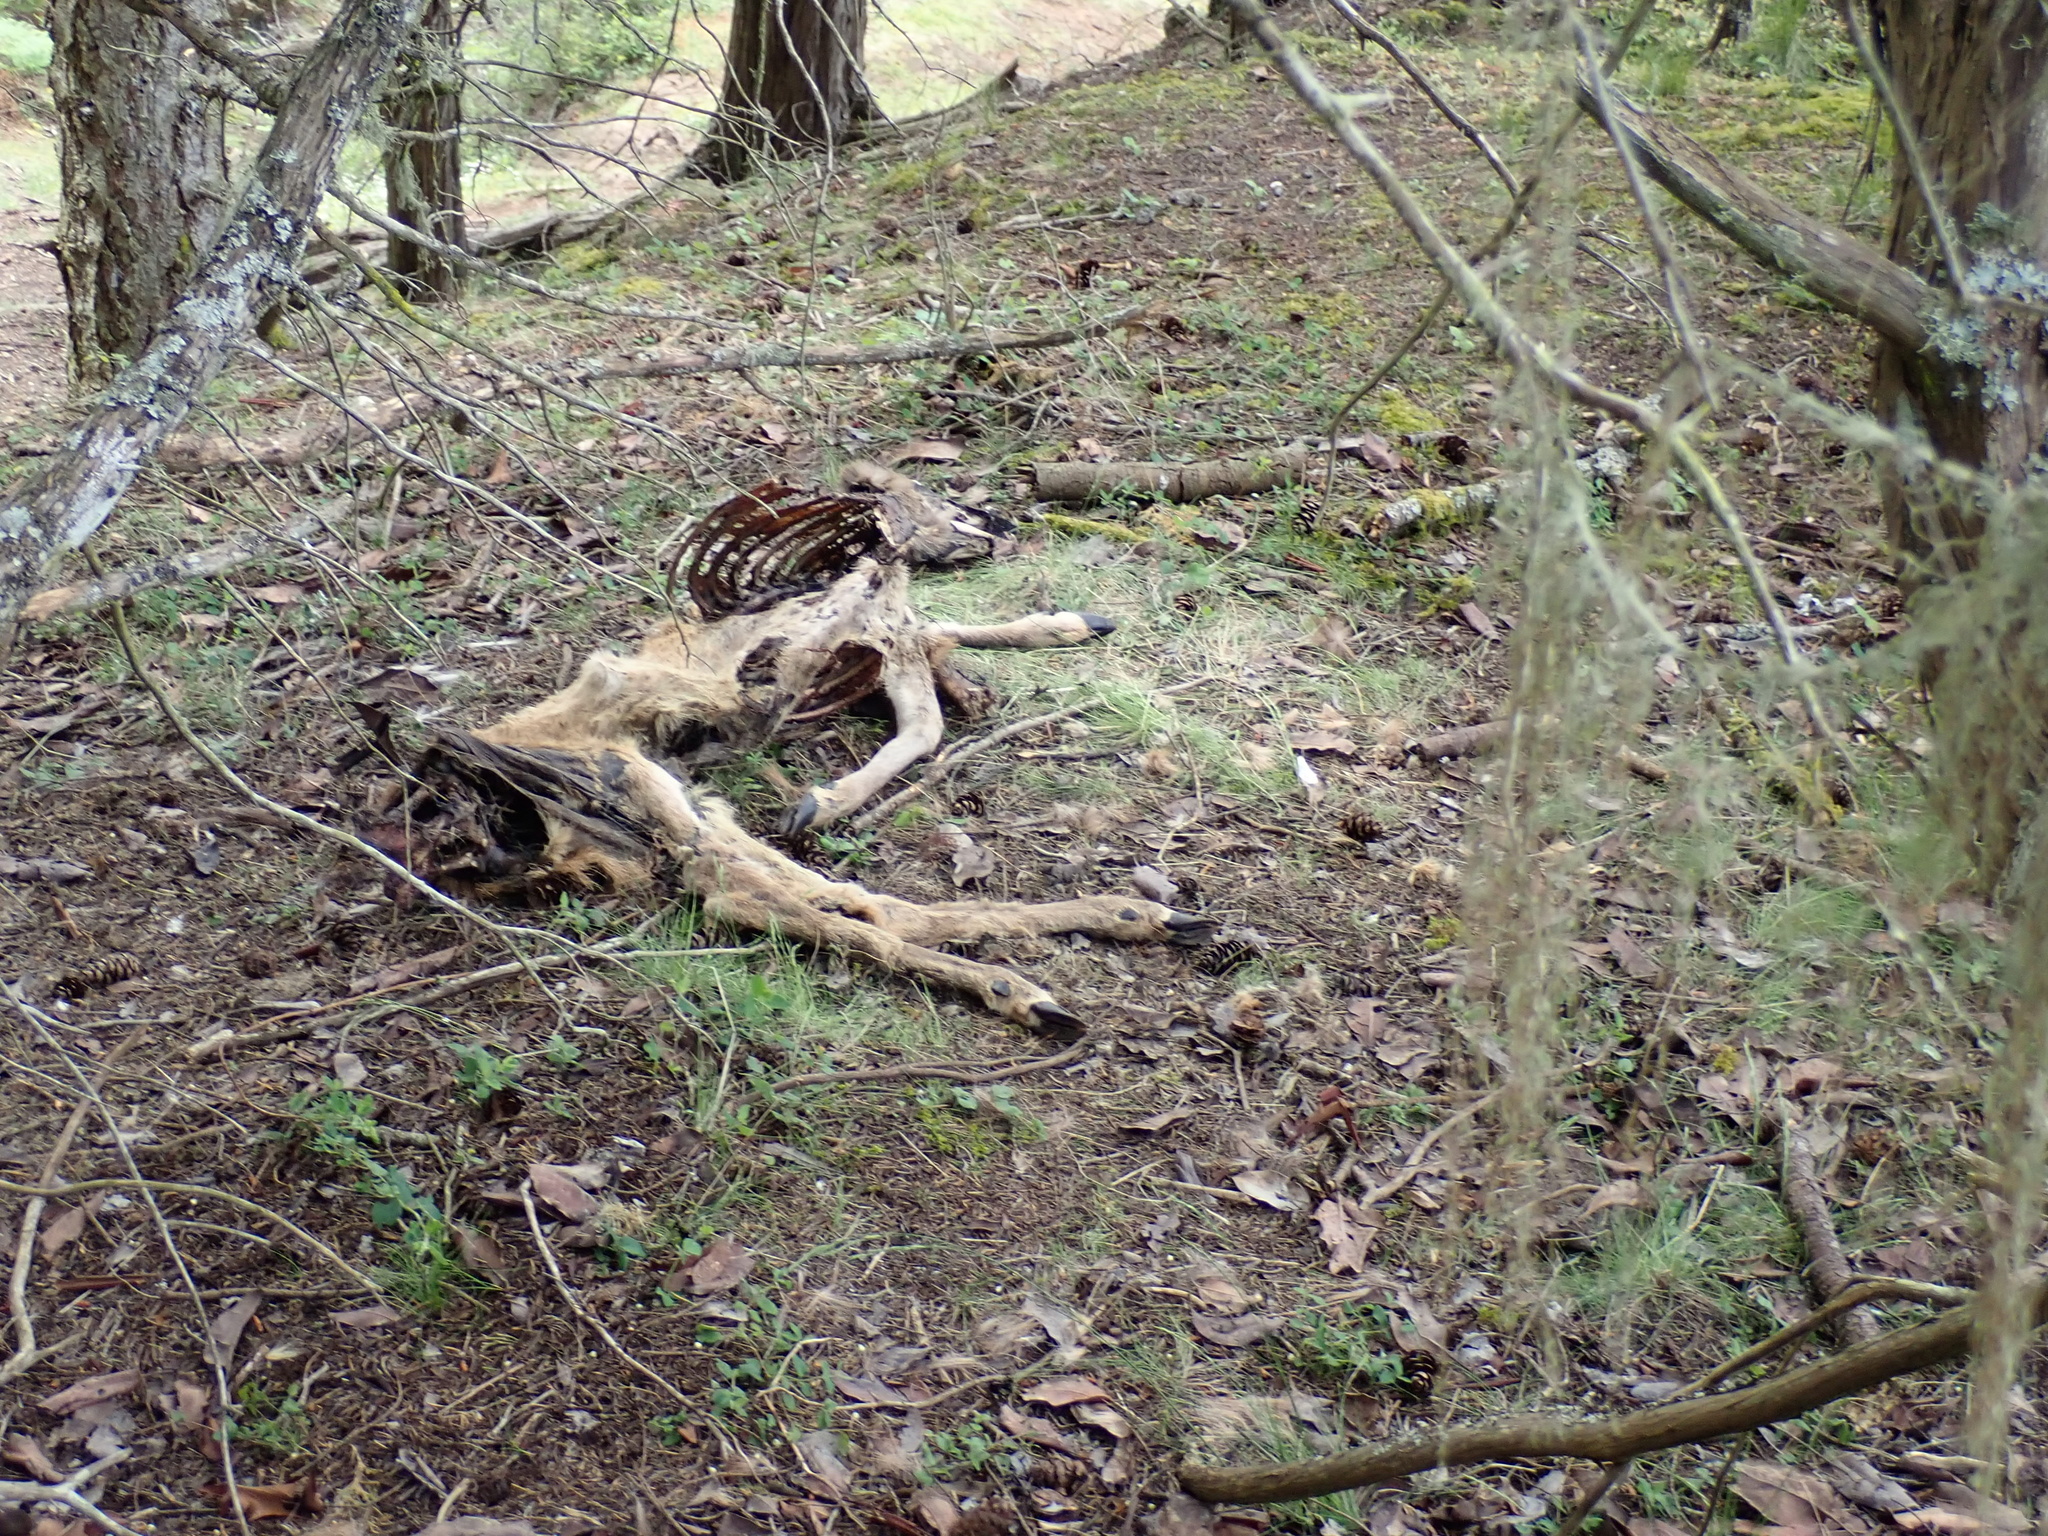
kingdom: Animalia
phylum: Chordata
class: Mammalia
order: Artiodactyla
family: Cervidae
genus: Odocoileus
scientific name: Odocoileus hemionus
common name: Mule deer
